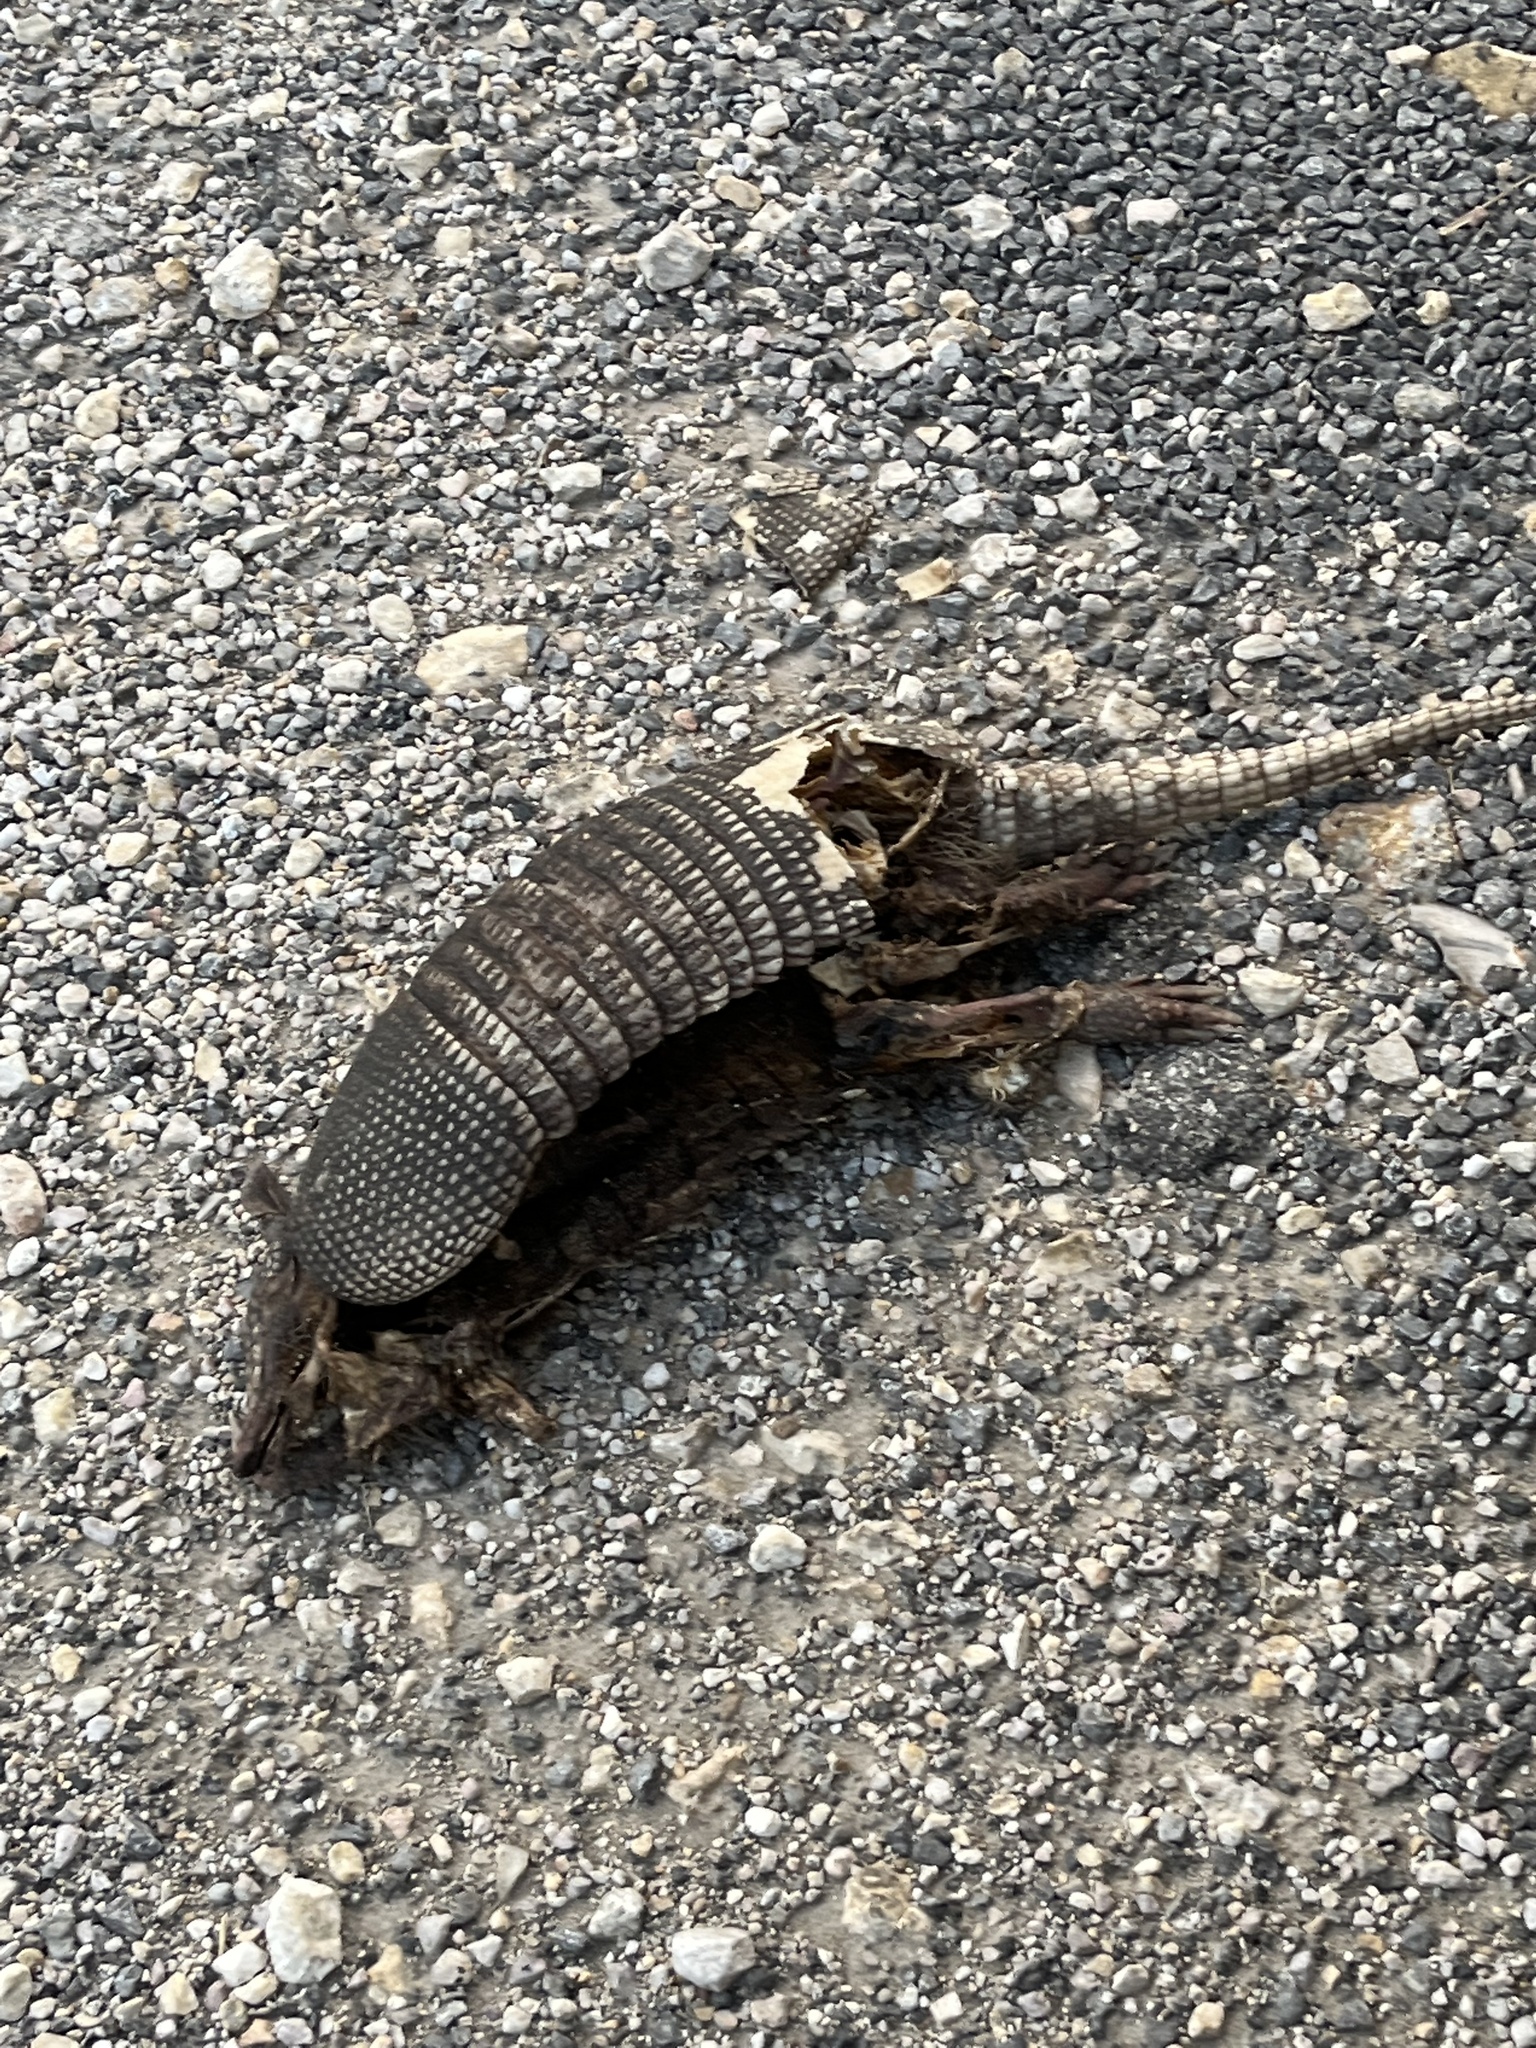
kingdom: Animalia
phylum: Chordata
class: Mammalia
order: Cingulata
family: Dasypodidae
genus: Dasypus
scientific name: Dasypus novemcinctus
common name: Nine-banded armadillo
